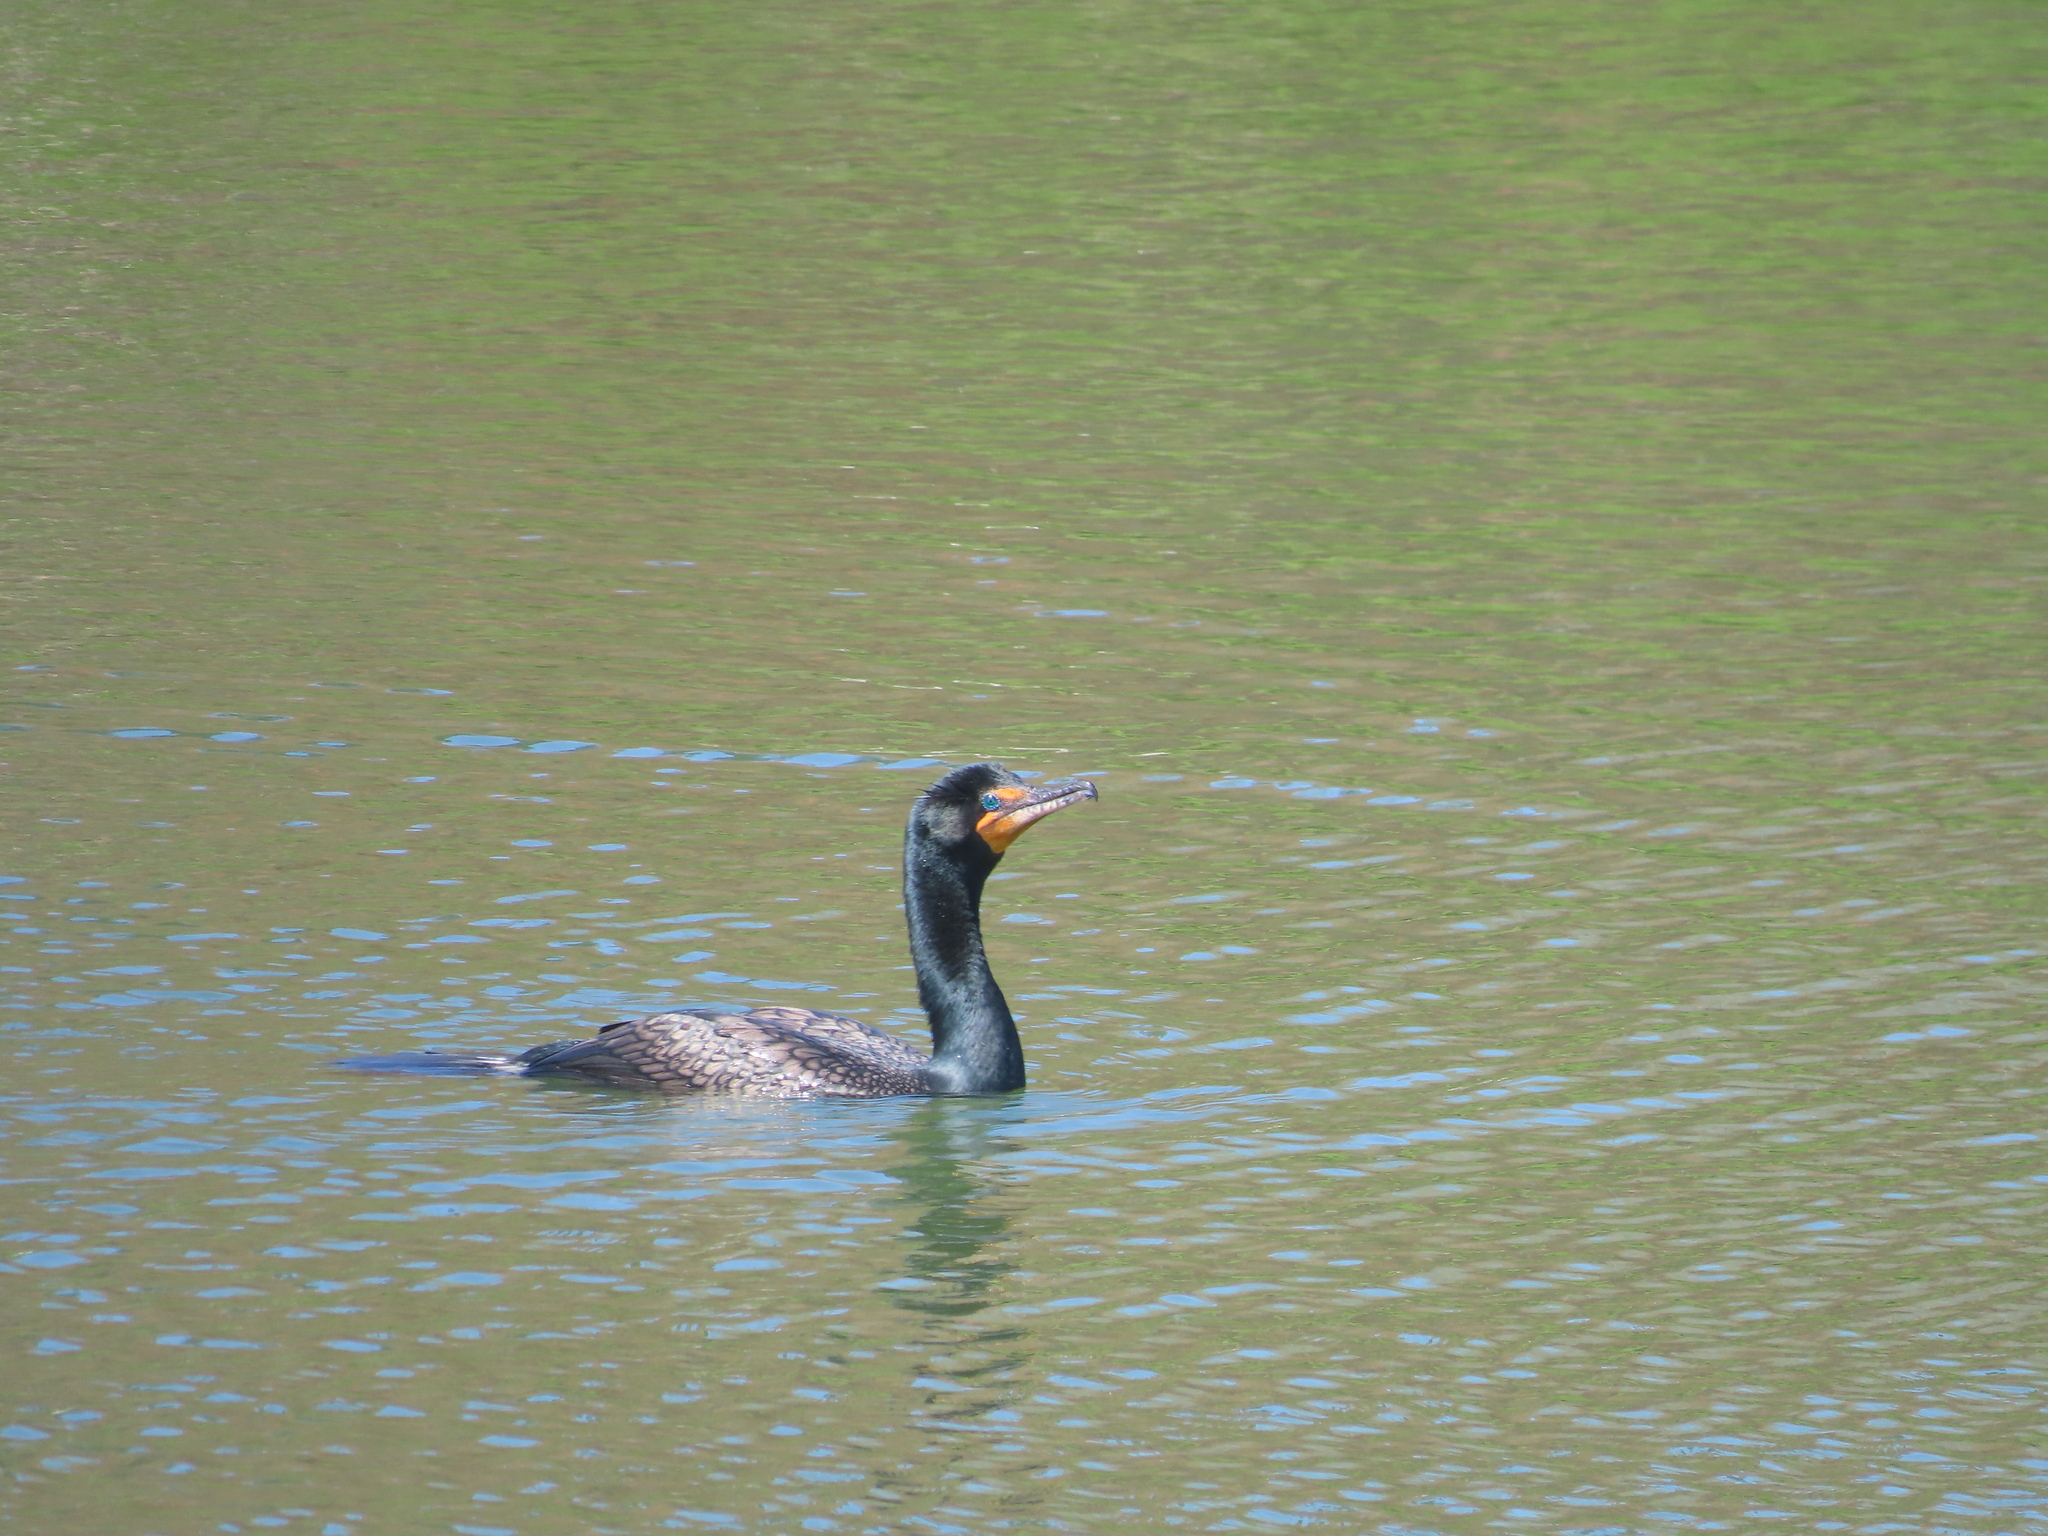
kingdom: Animalia
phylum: Chordata
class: Aves
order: Suliformes
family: Phalacrocoracidae
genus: Phalacrocorax
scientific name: Phalacrocorax auritus
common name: Double-crested cormorant
